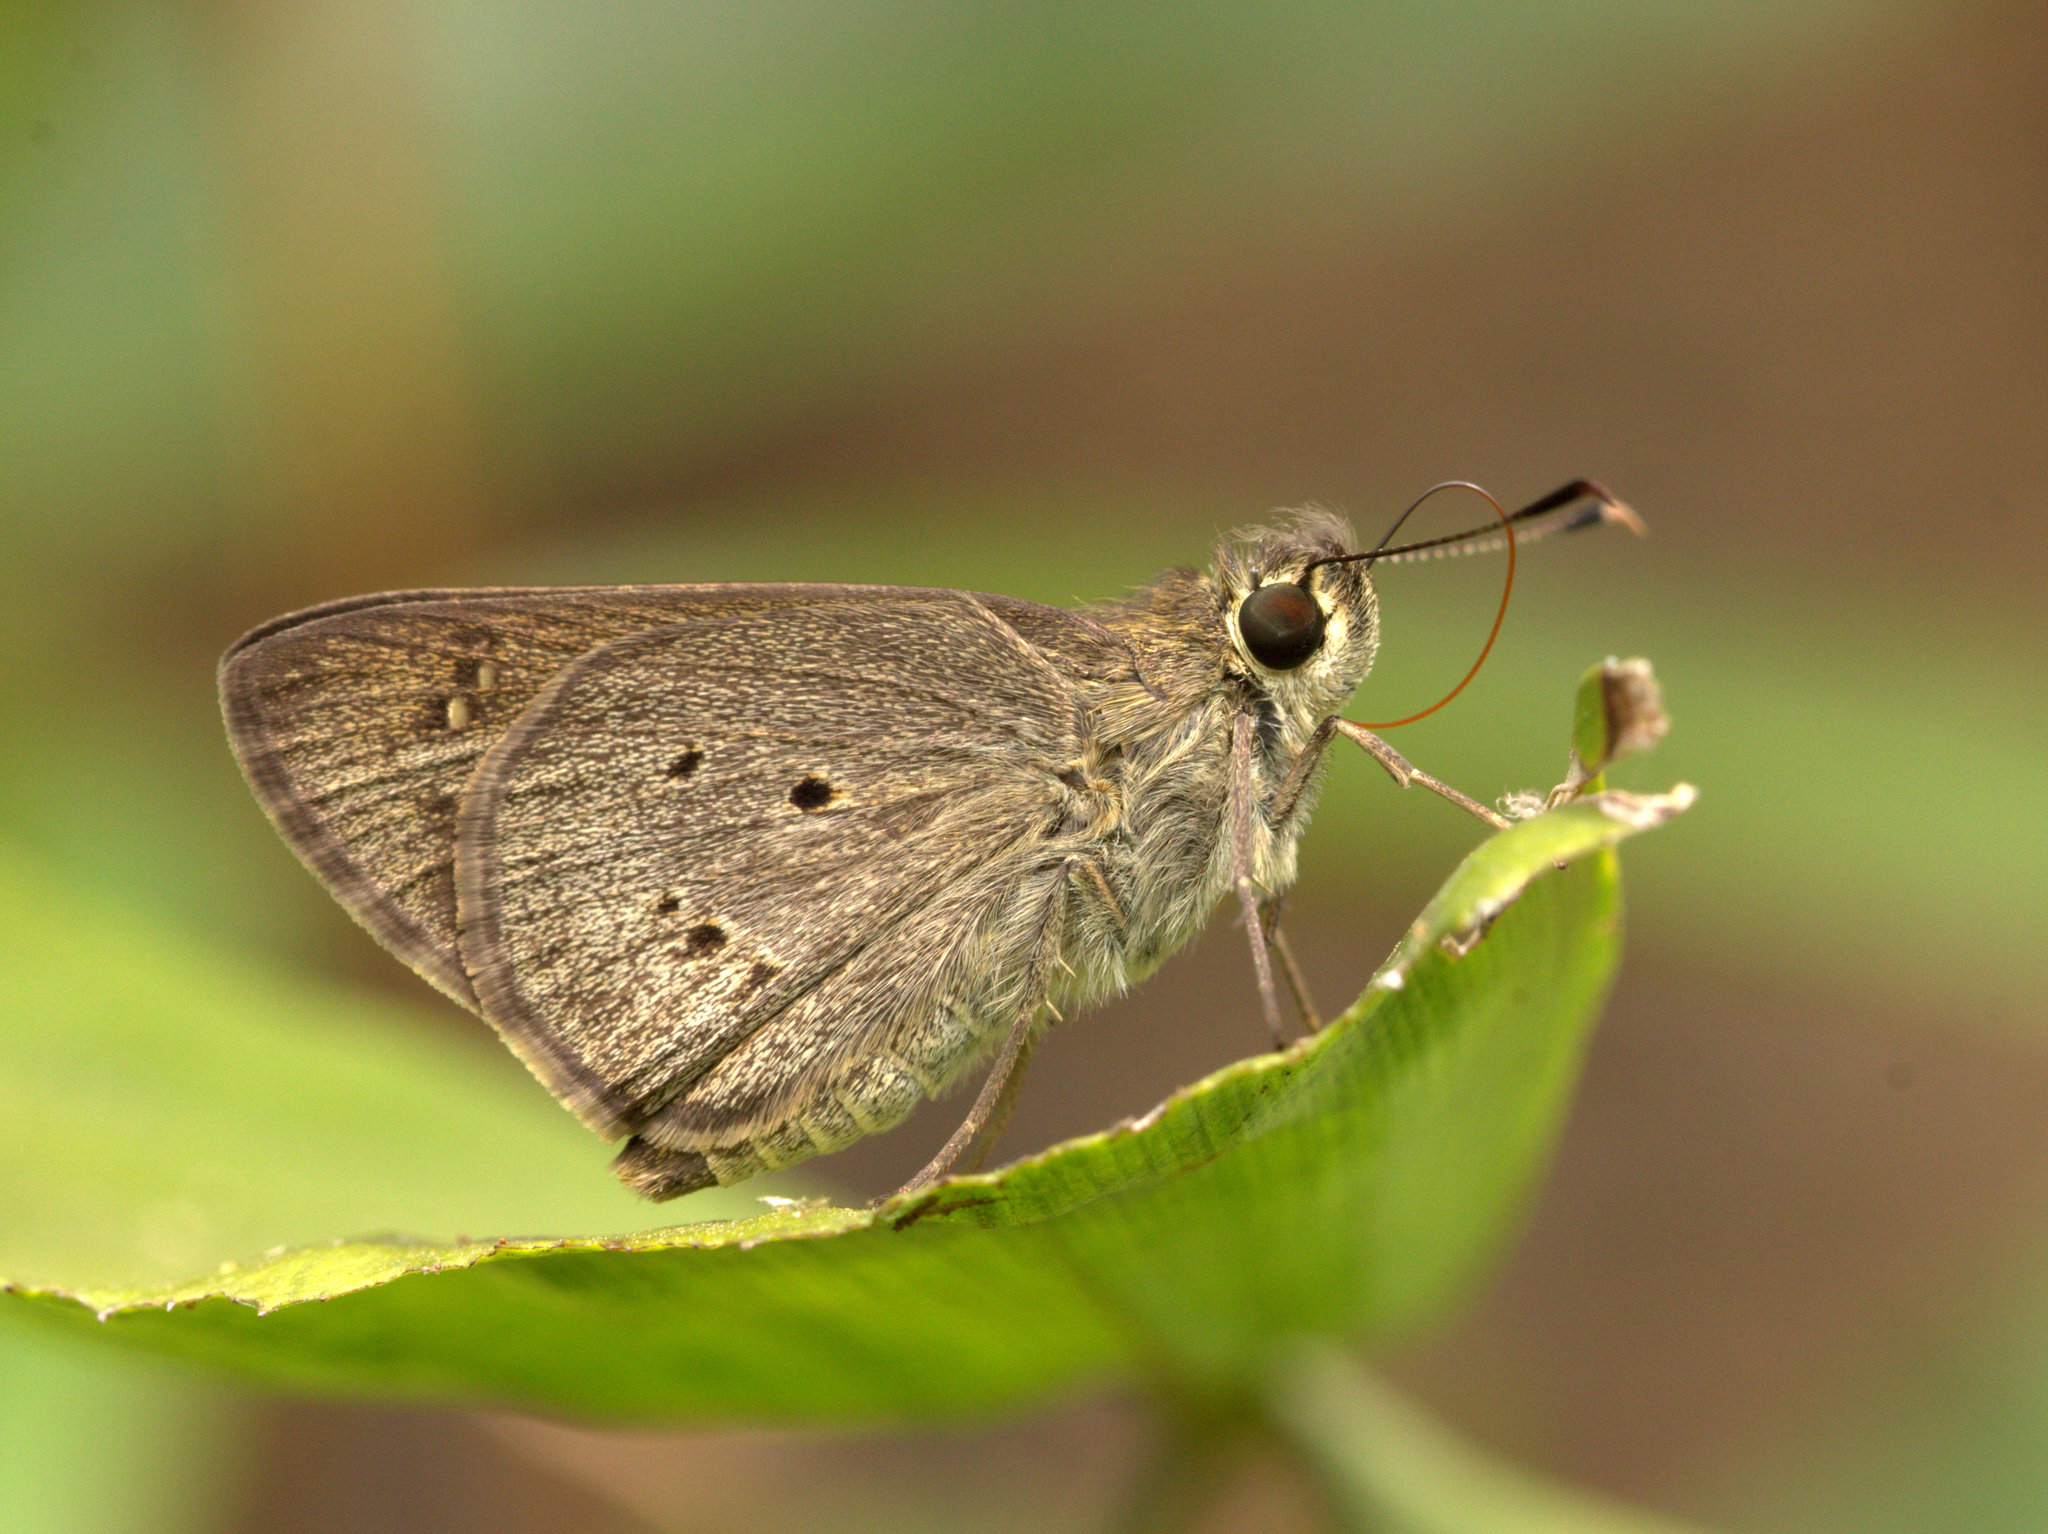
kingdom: Animalia
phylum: Arthropoda
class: Insecta
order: Lepidoptera
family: Hesperiidae
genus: Suastus
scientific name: Suastus gremius
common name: Indian palm bob
